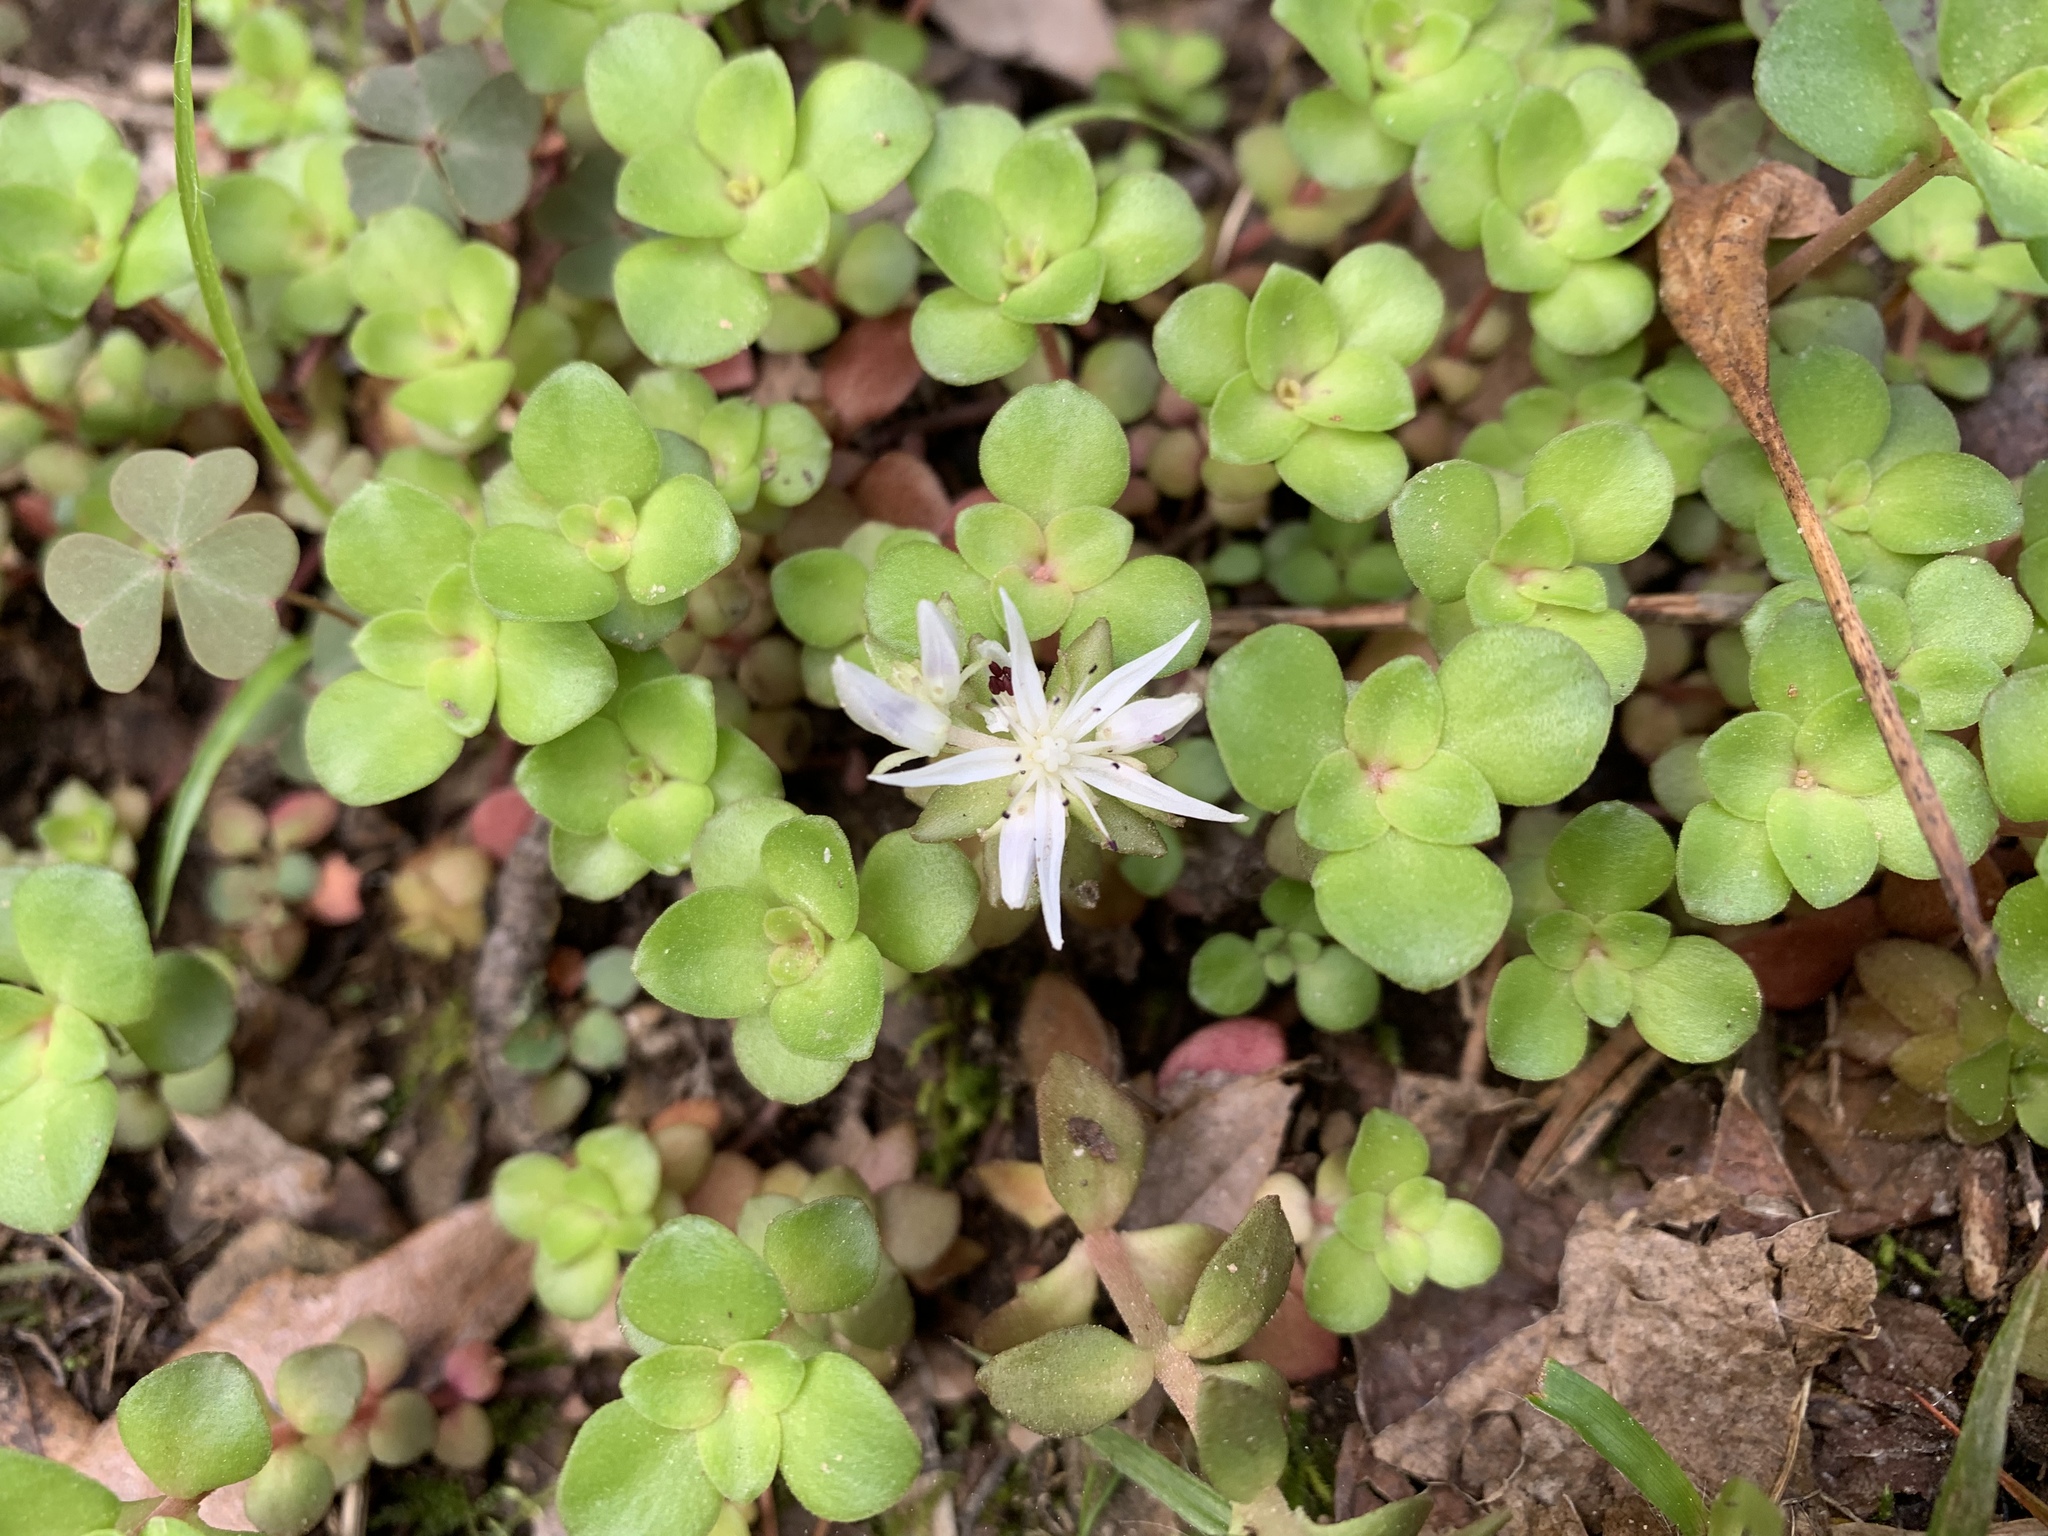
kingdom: Plantae
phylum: Tracheophyta
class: Magnoliopsida
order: Saxifragales
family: Crassulaceae
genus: Sedum
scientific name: Sedum ternatum
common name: Wild stonecrop
